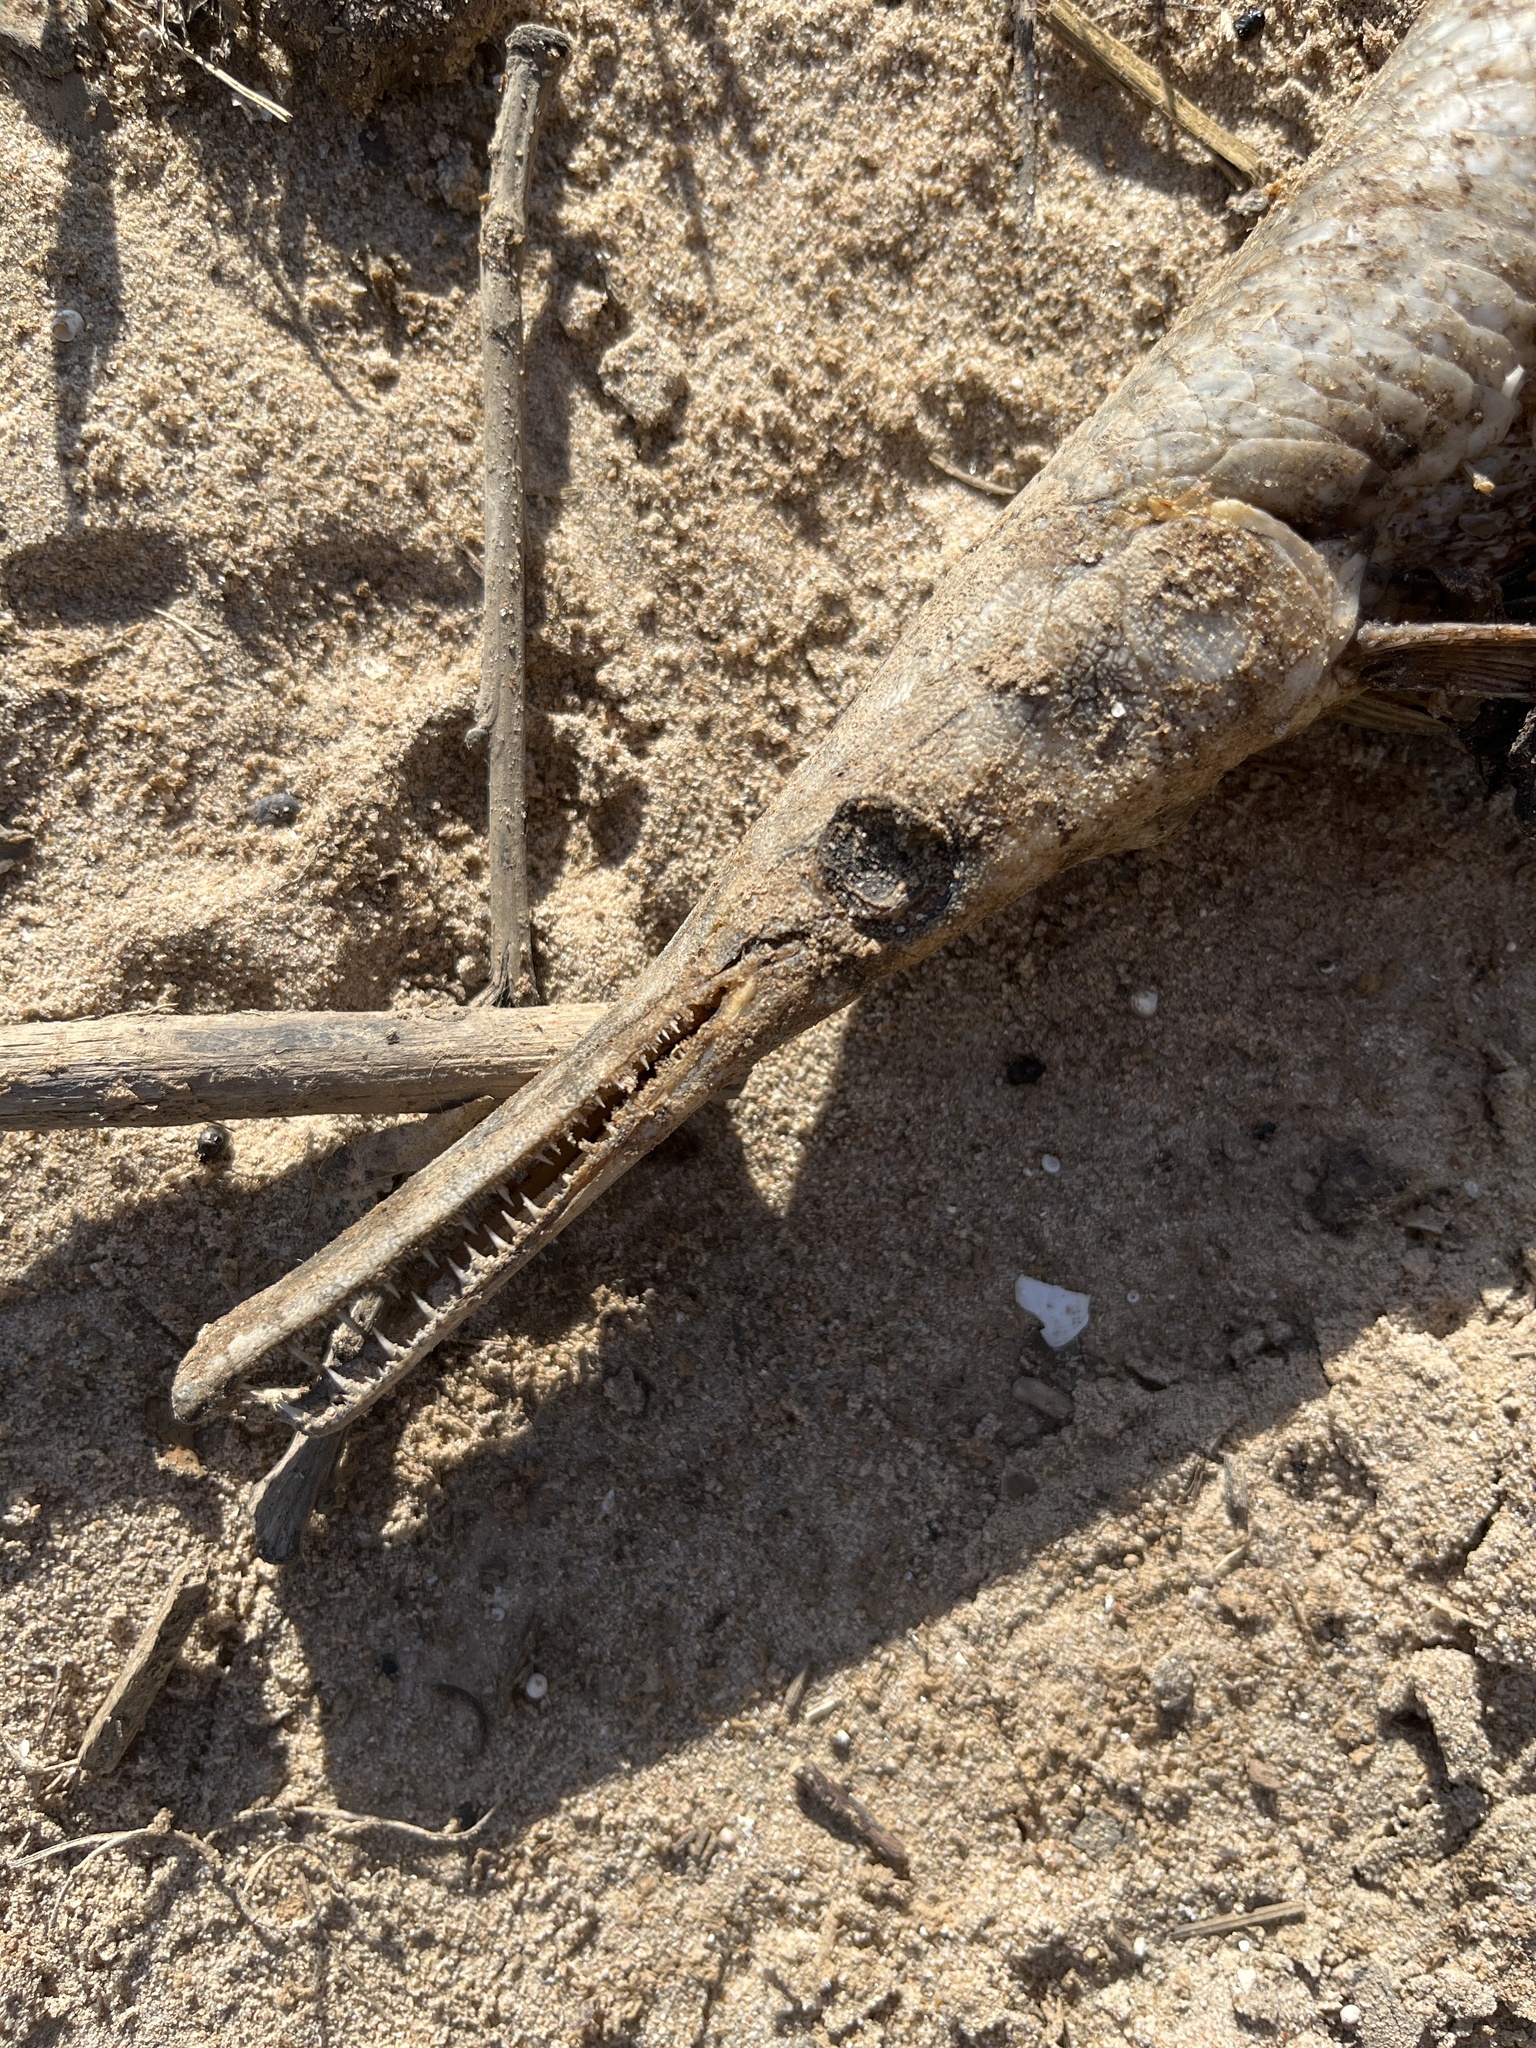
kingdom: Animalia
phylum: Chordata
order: Lepisosteiformes
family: Lepisosteidae
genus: Lepisosteus
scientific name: Lepisosteus oculatus
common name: Spotted gar
